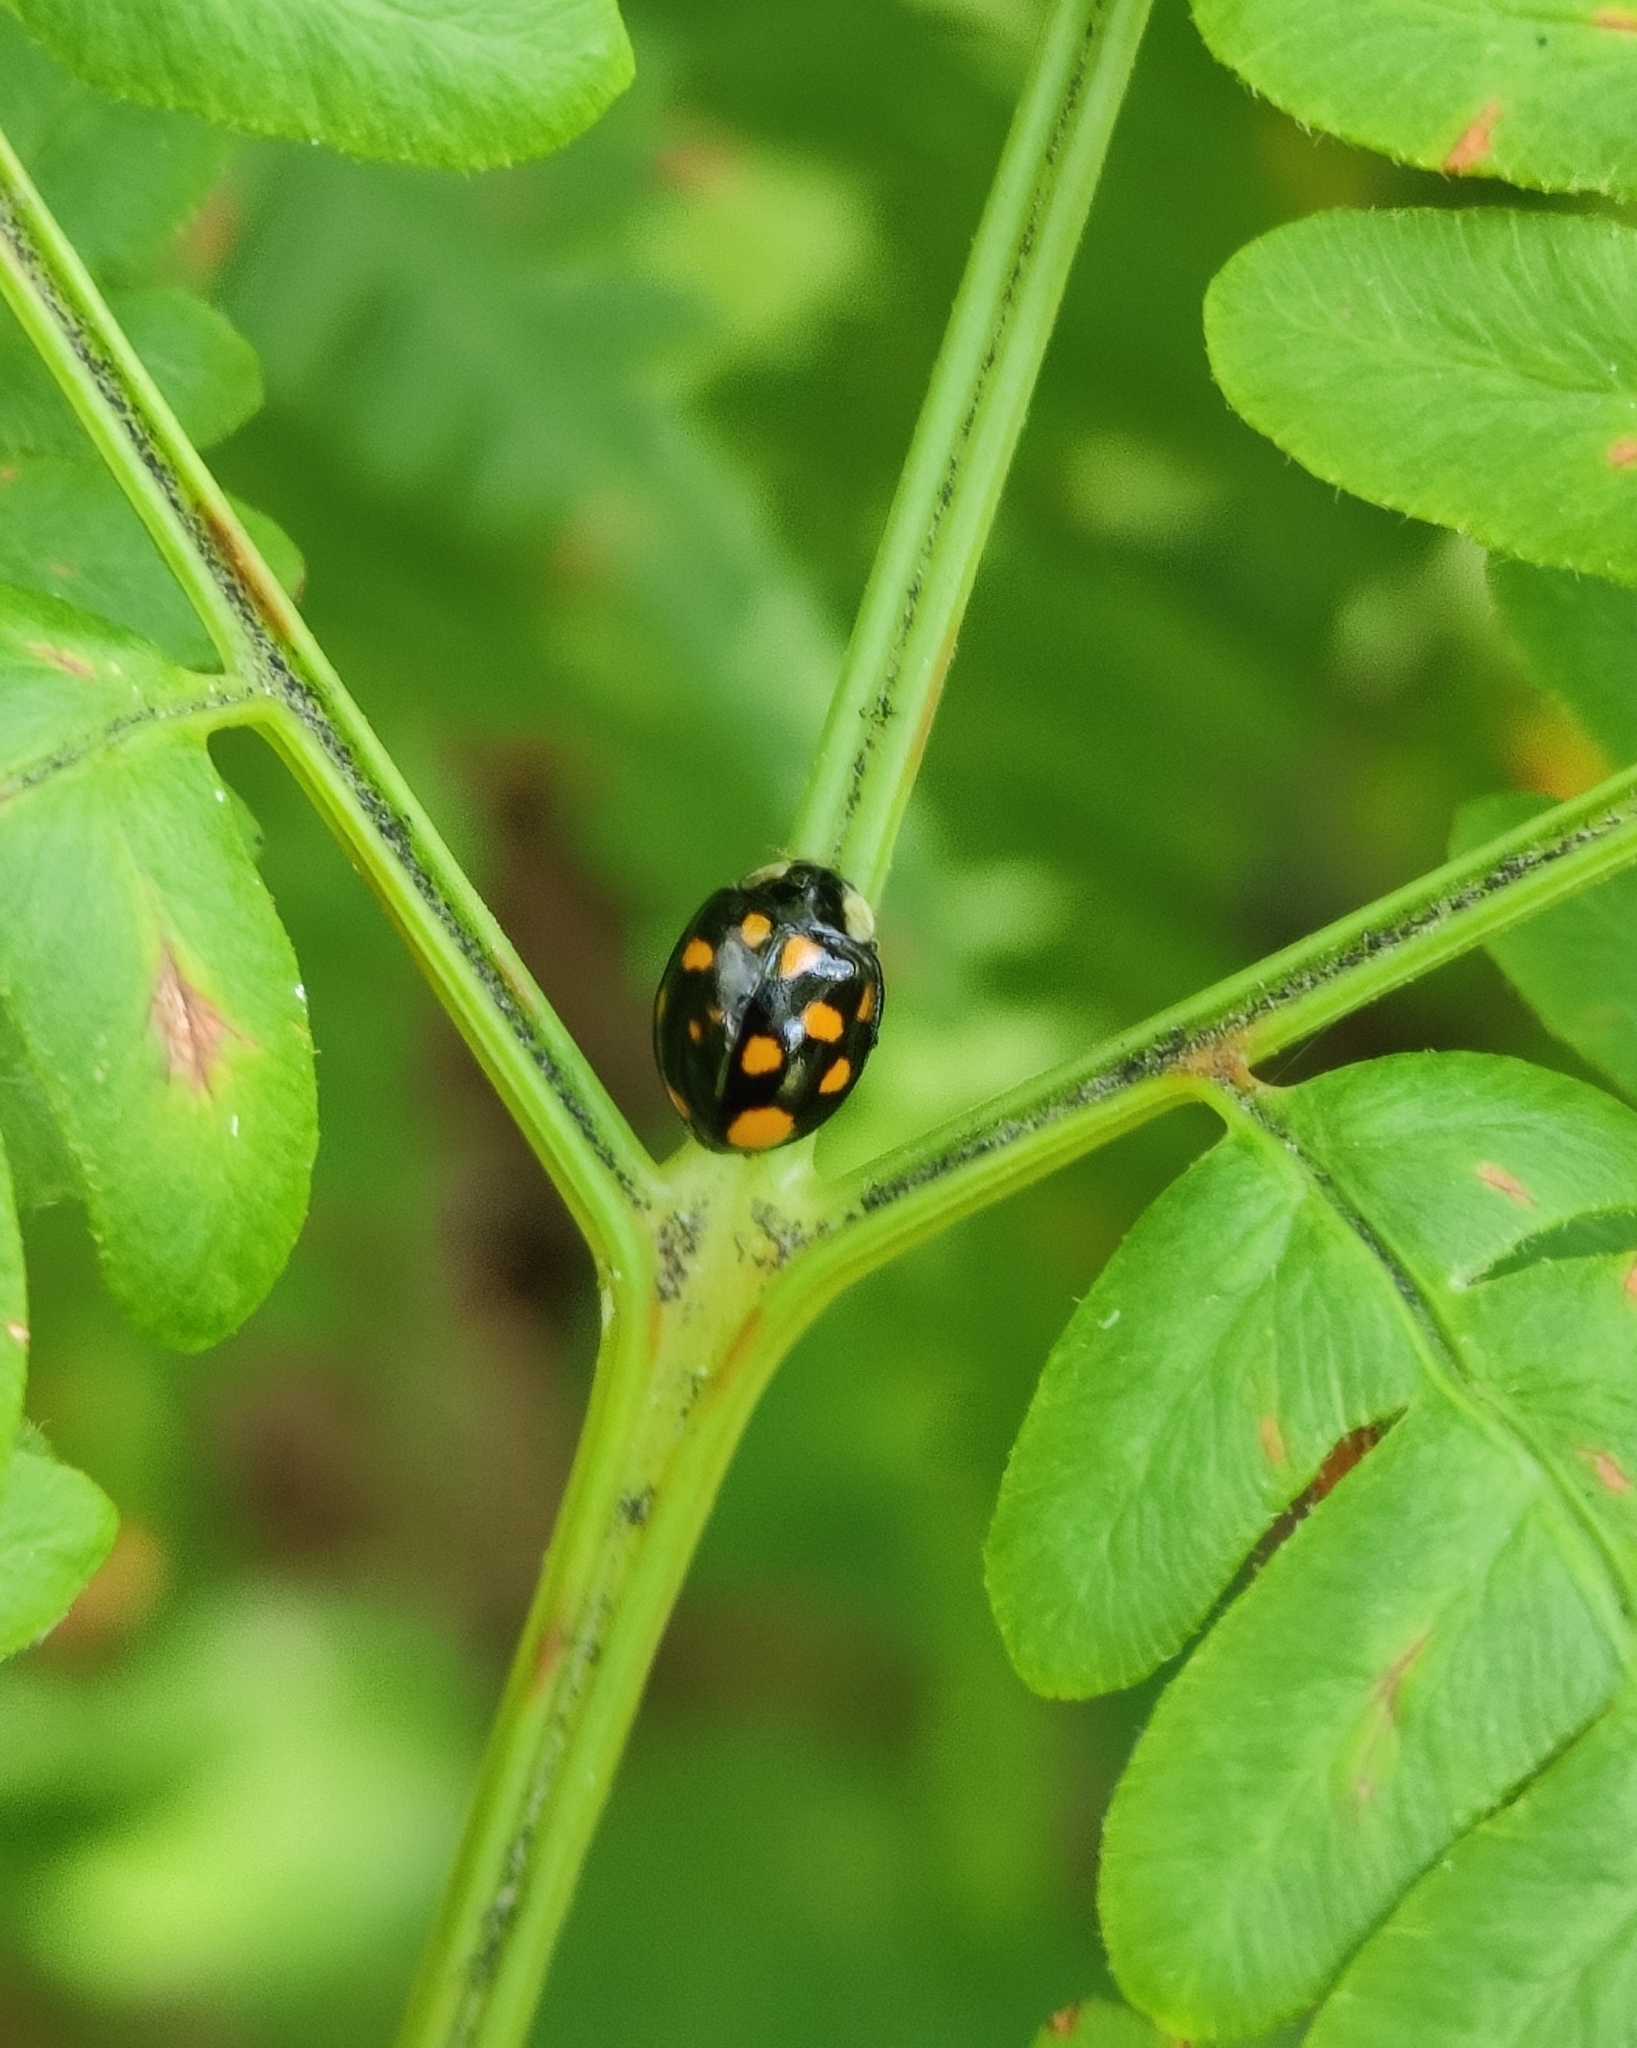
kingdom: Animalia
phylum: Arthropoda
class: Insecta
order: Coleoptera
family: Coccinellidae
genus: Harmonia
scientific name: Harmonia axyridis
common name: Harlequin ladybird
